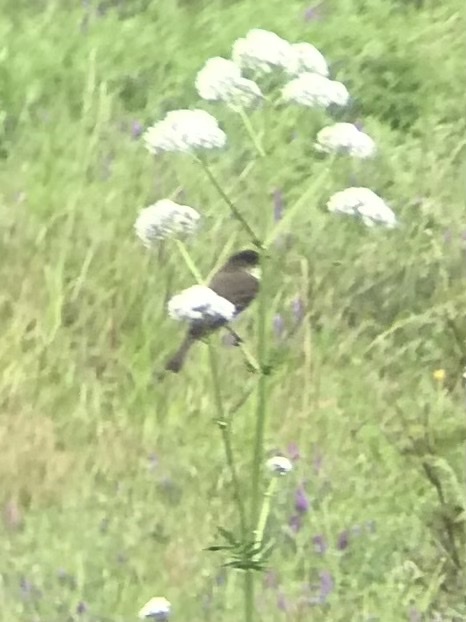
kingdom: Animalia
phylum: Chordata
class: Aves
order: Passeriformes
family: Tyrannidae
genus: Sayornis
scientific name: Sayornis phoebe
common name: Eastern phoebe
